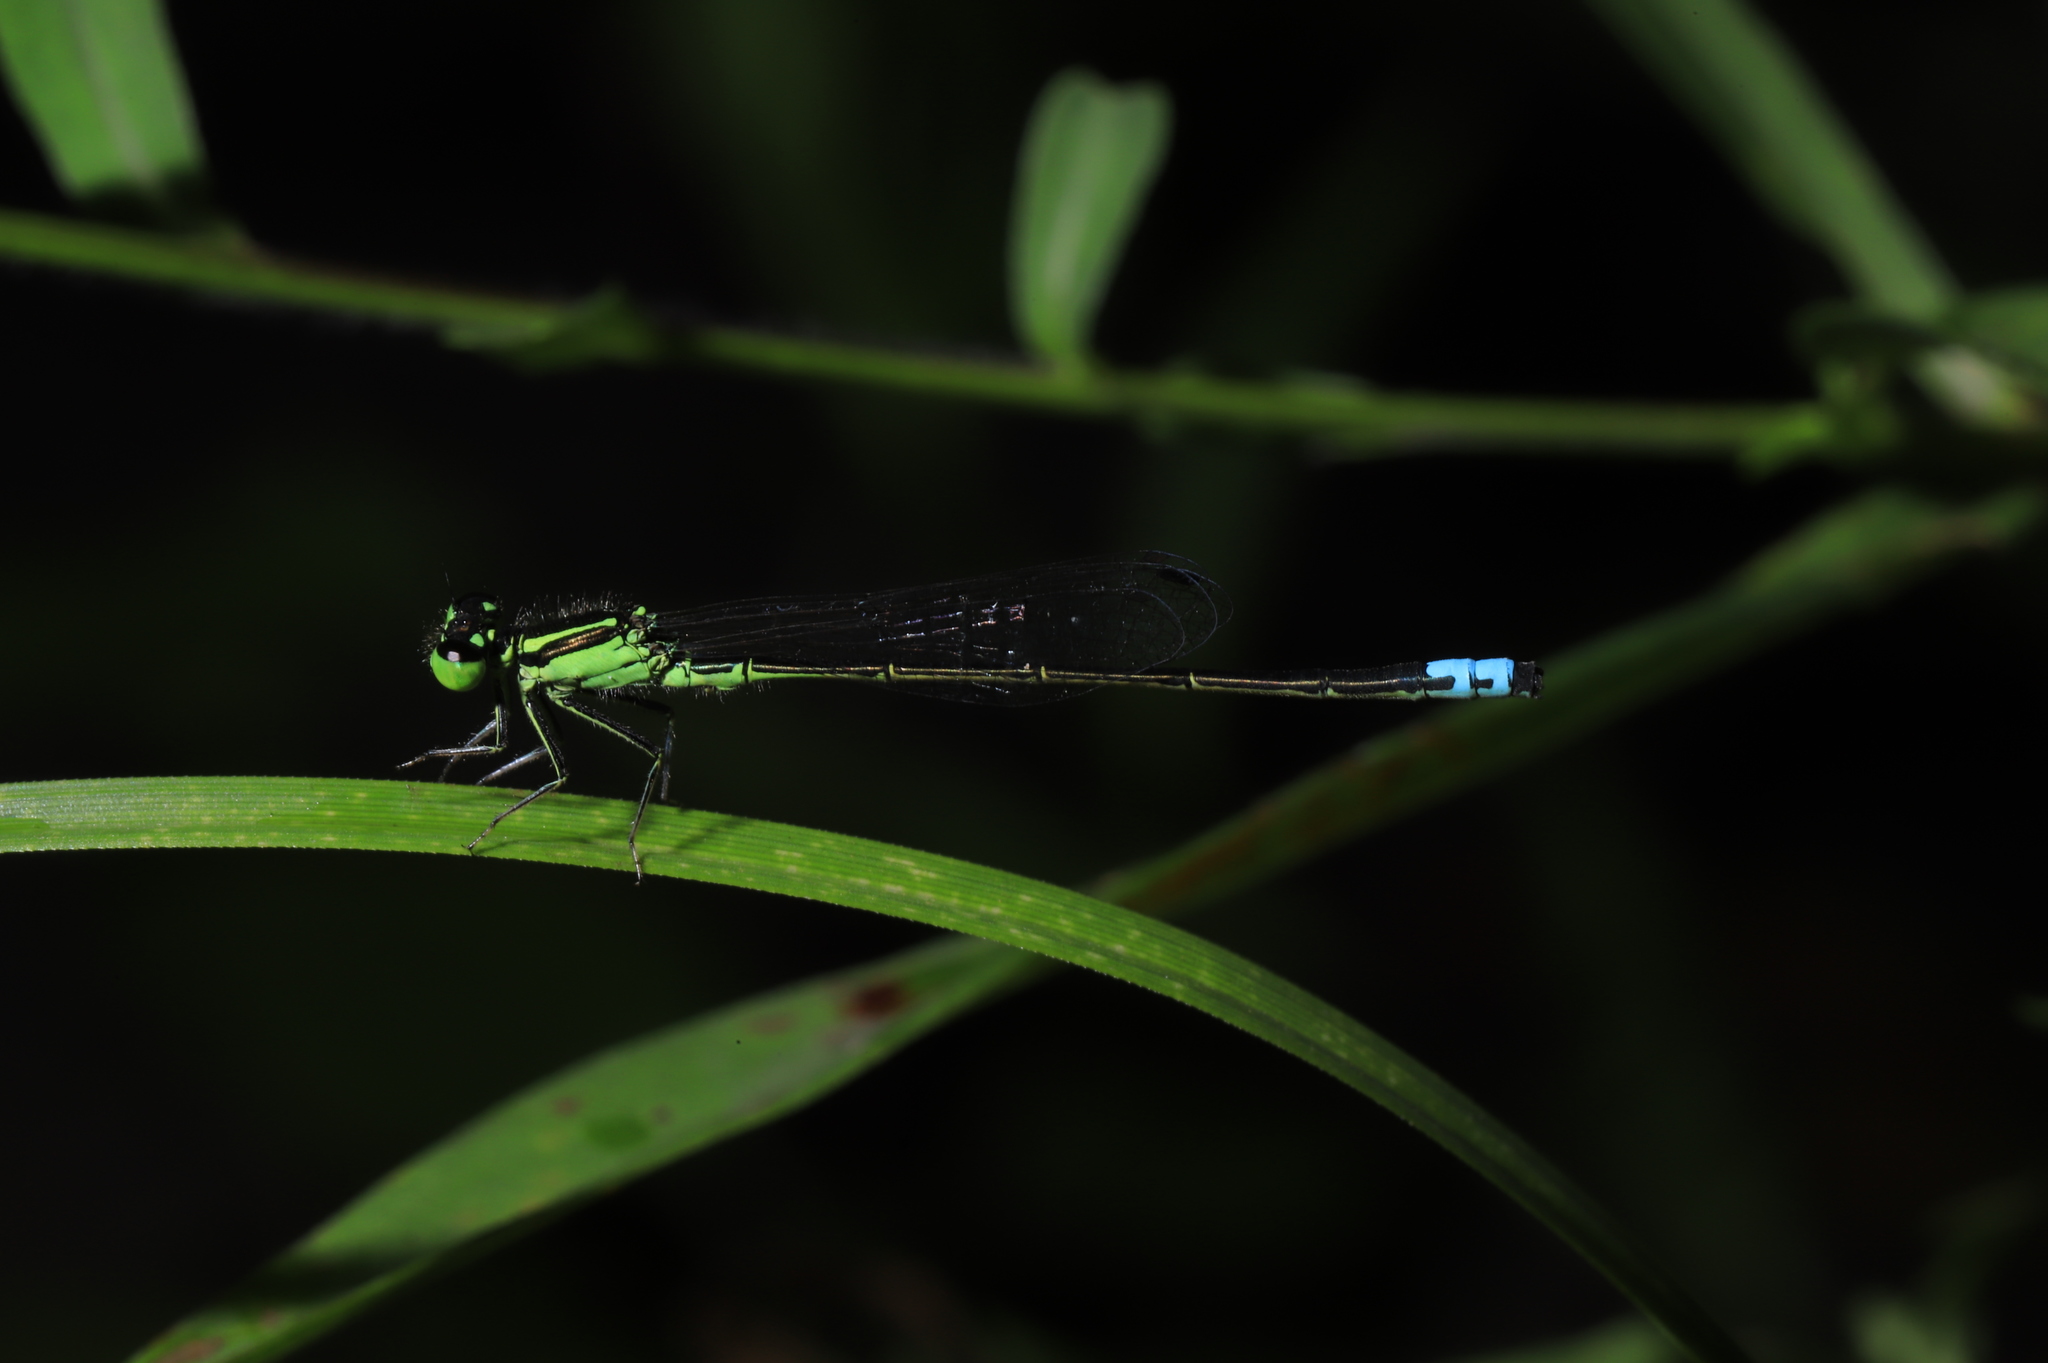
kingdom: Animalia
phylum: Arthropoda
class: Insecta
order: Odonata
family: Coenagrionidae
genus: Ischnura
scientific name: Ischnura verticalis
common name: Eastern forktail
